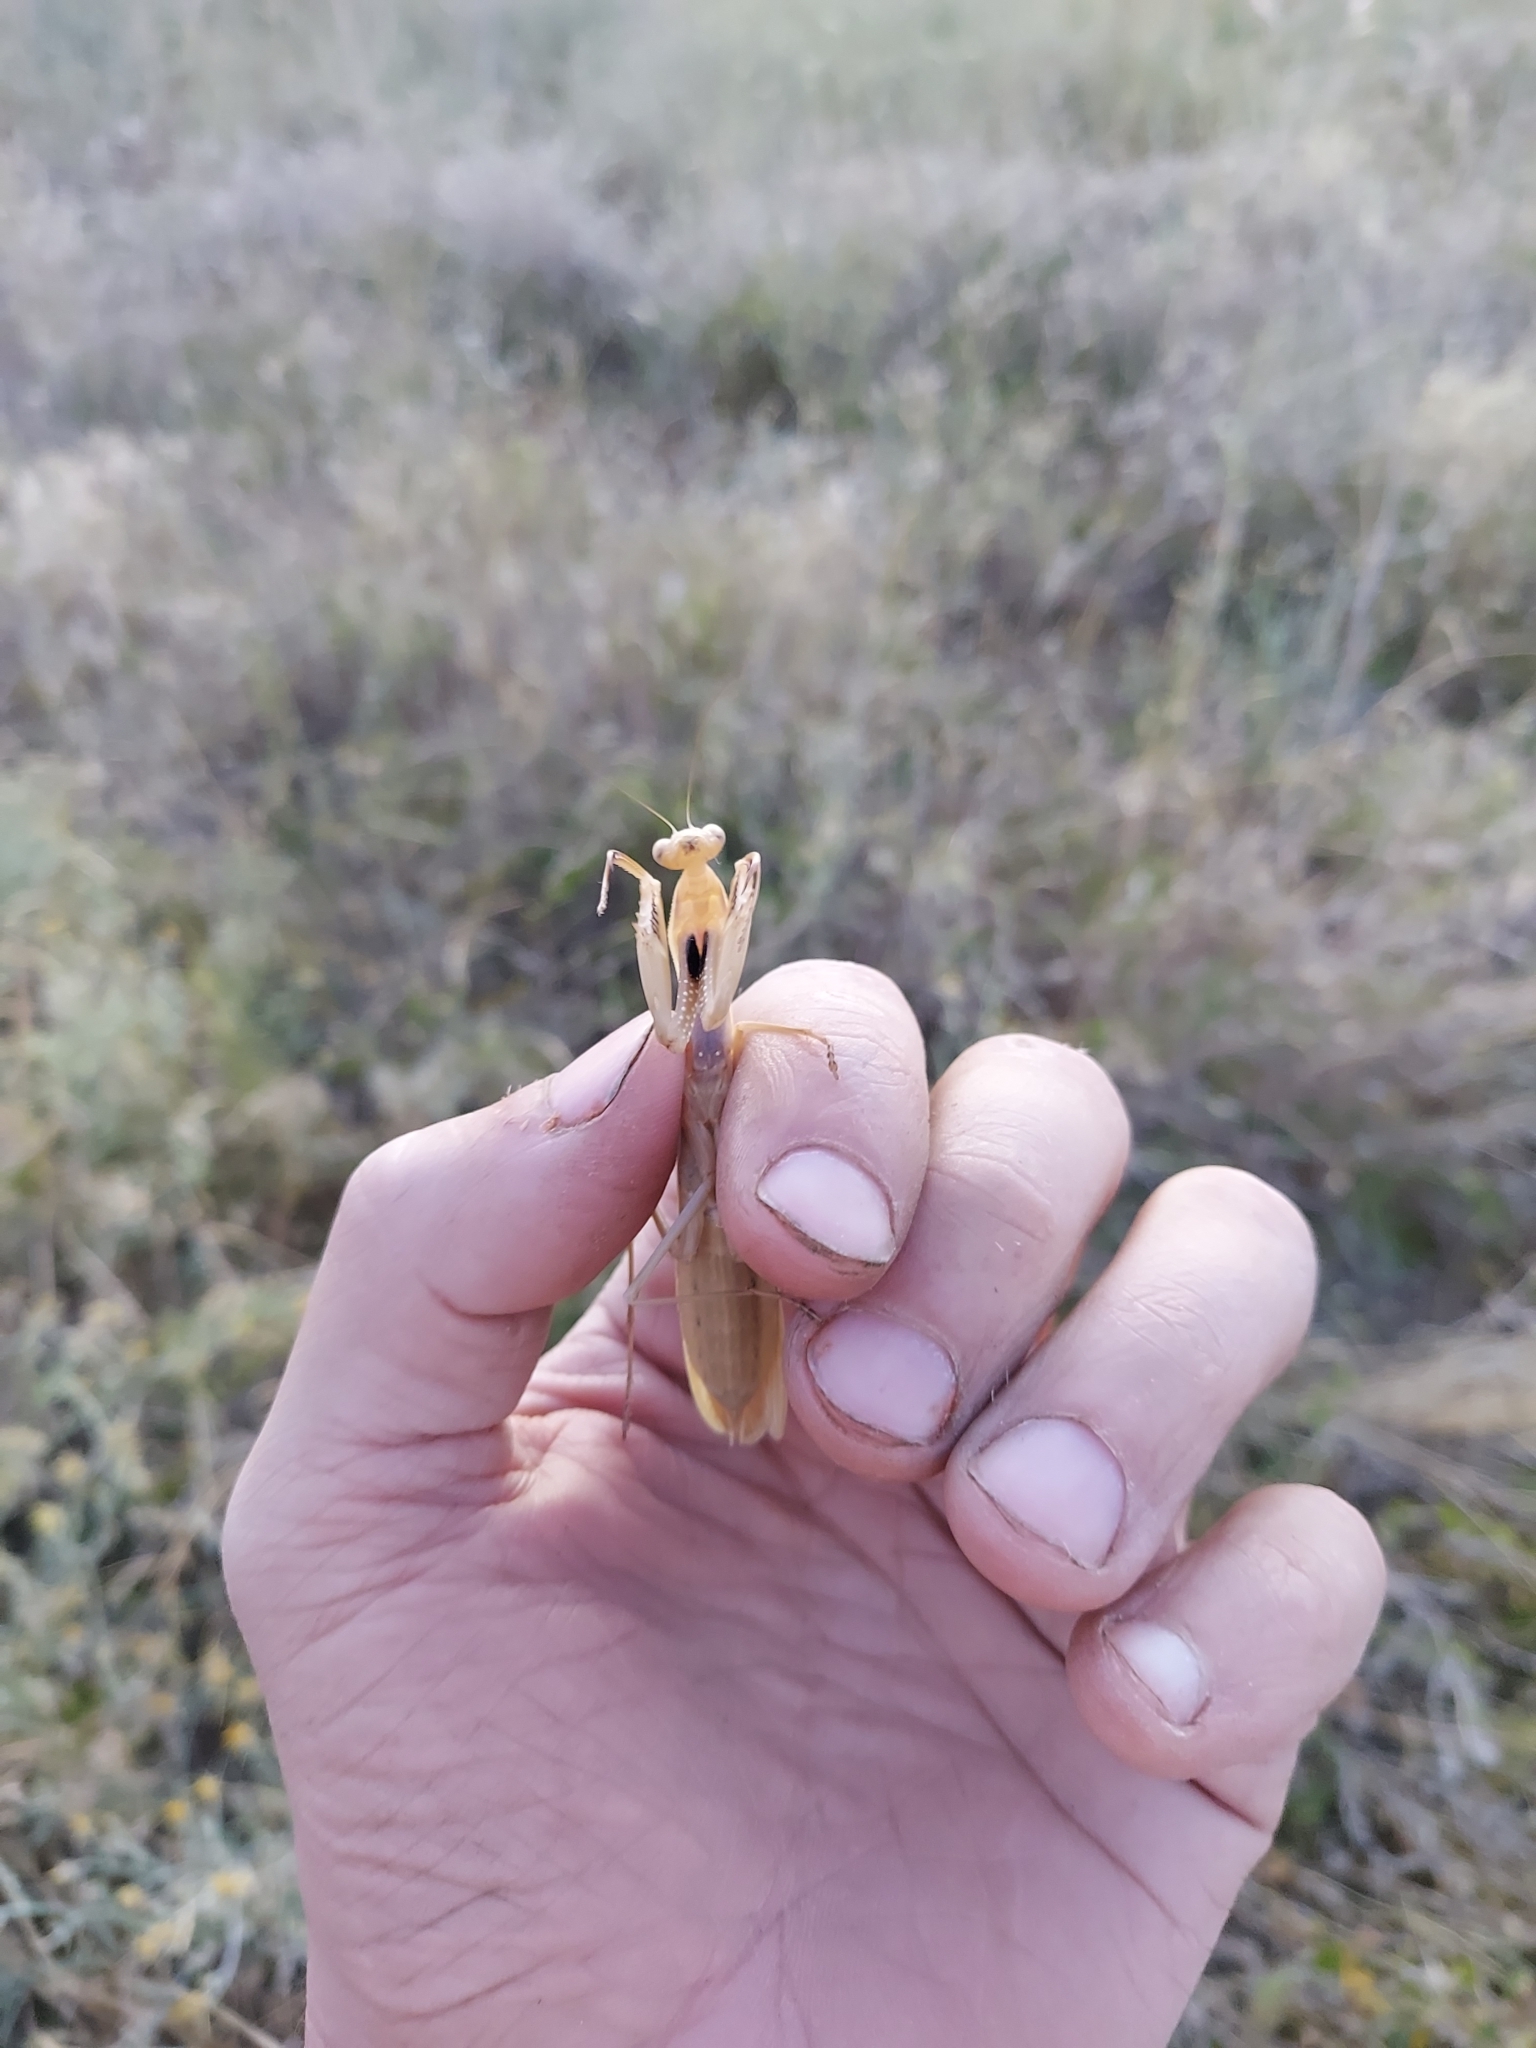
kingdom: Animalia
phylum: Arthropoda
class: Insecta
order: Mantodea
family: Mantidae
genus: Mantis
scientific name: Mantis religiosa
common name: Praying mantis
